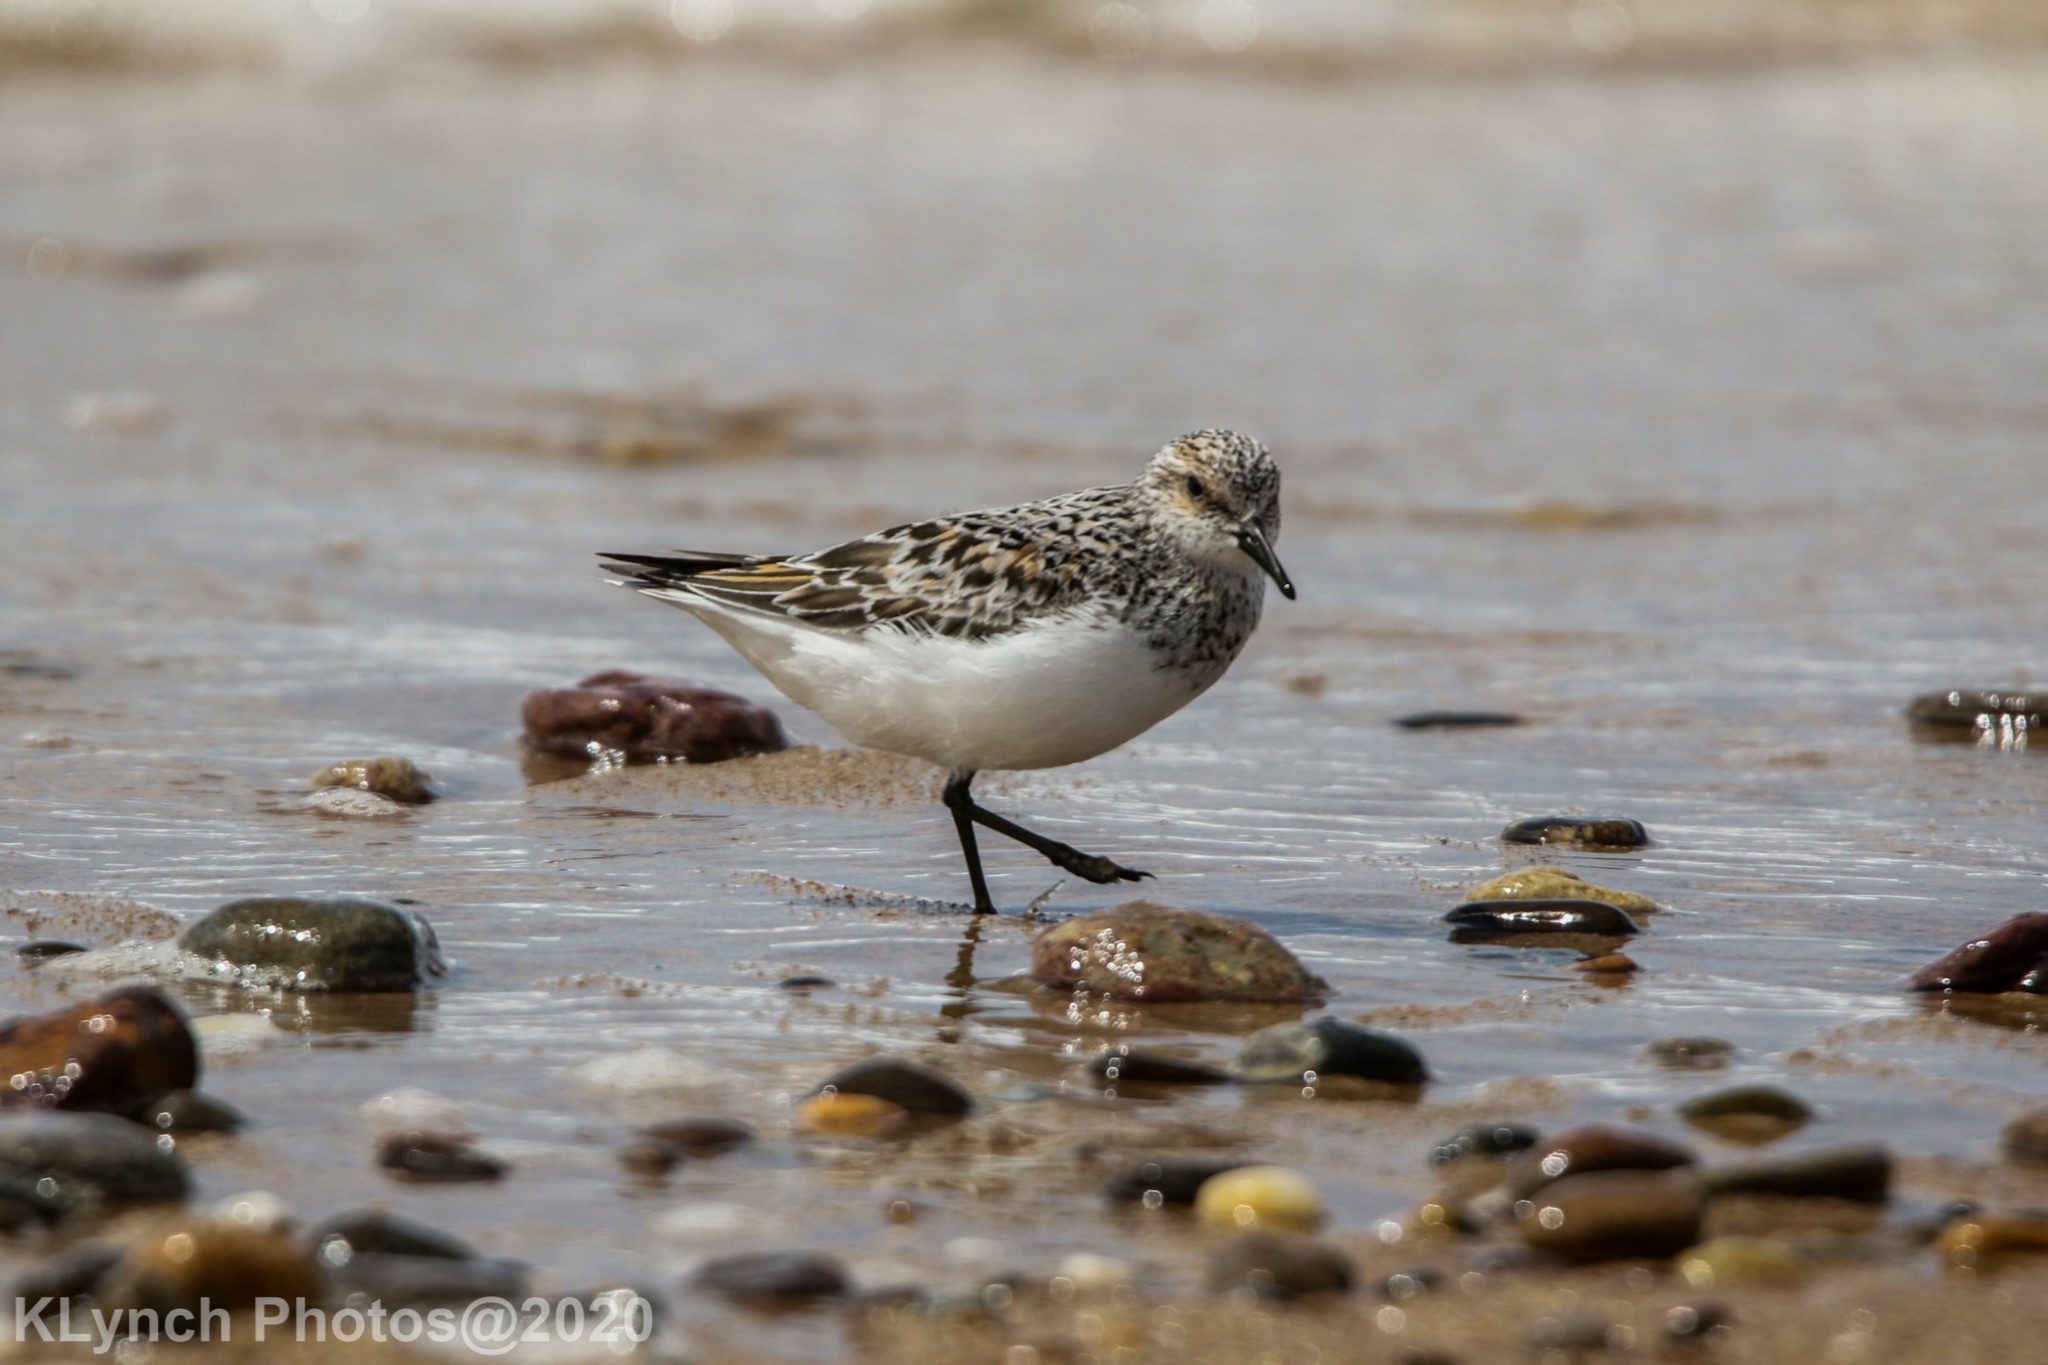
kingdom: Animalia
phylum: Chordata
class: Aves
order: Charadriiformes
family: Scolopacidae
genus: Calidris
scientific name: Calidris alba
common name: Sanderling
